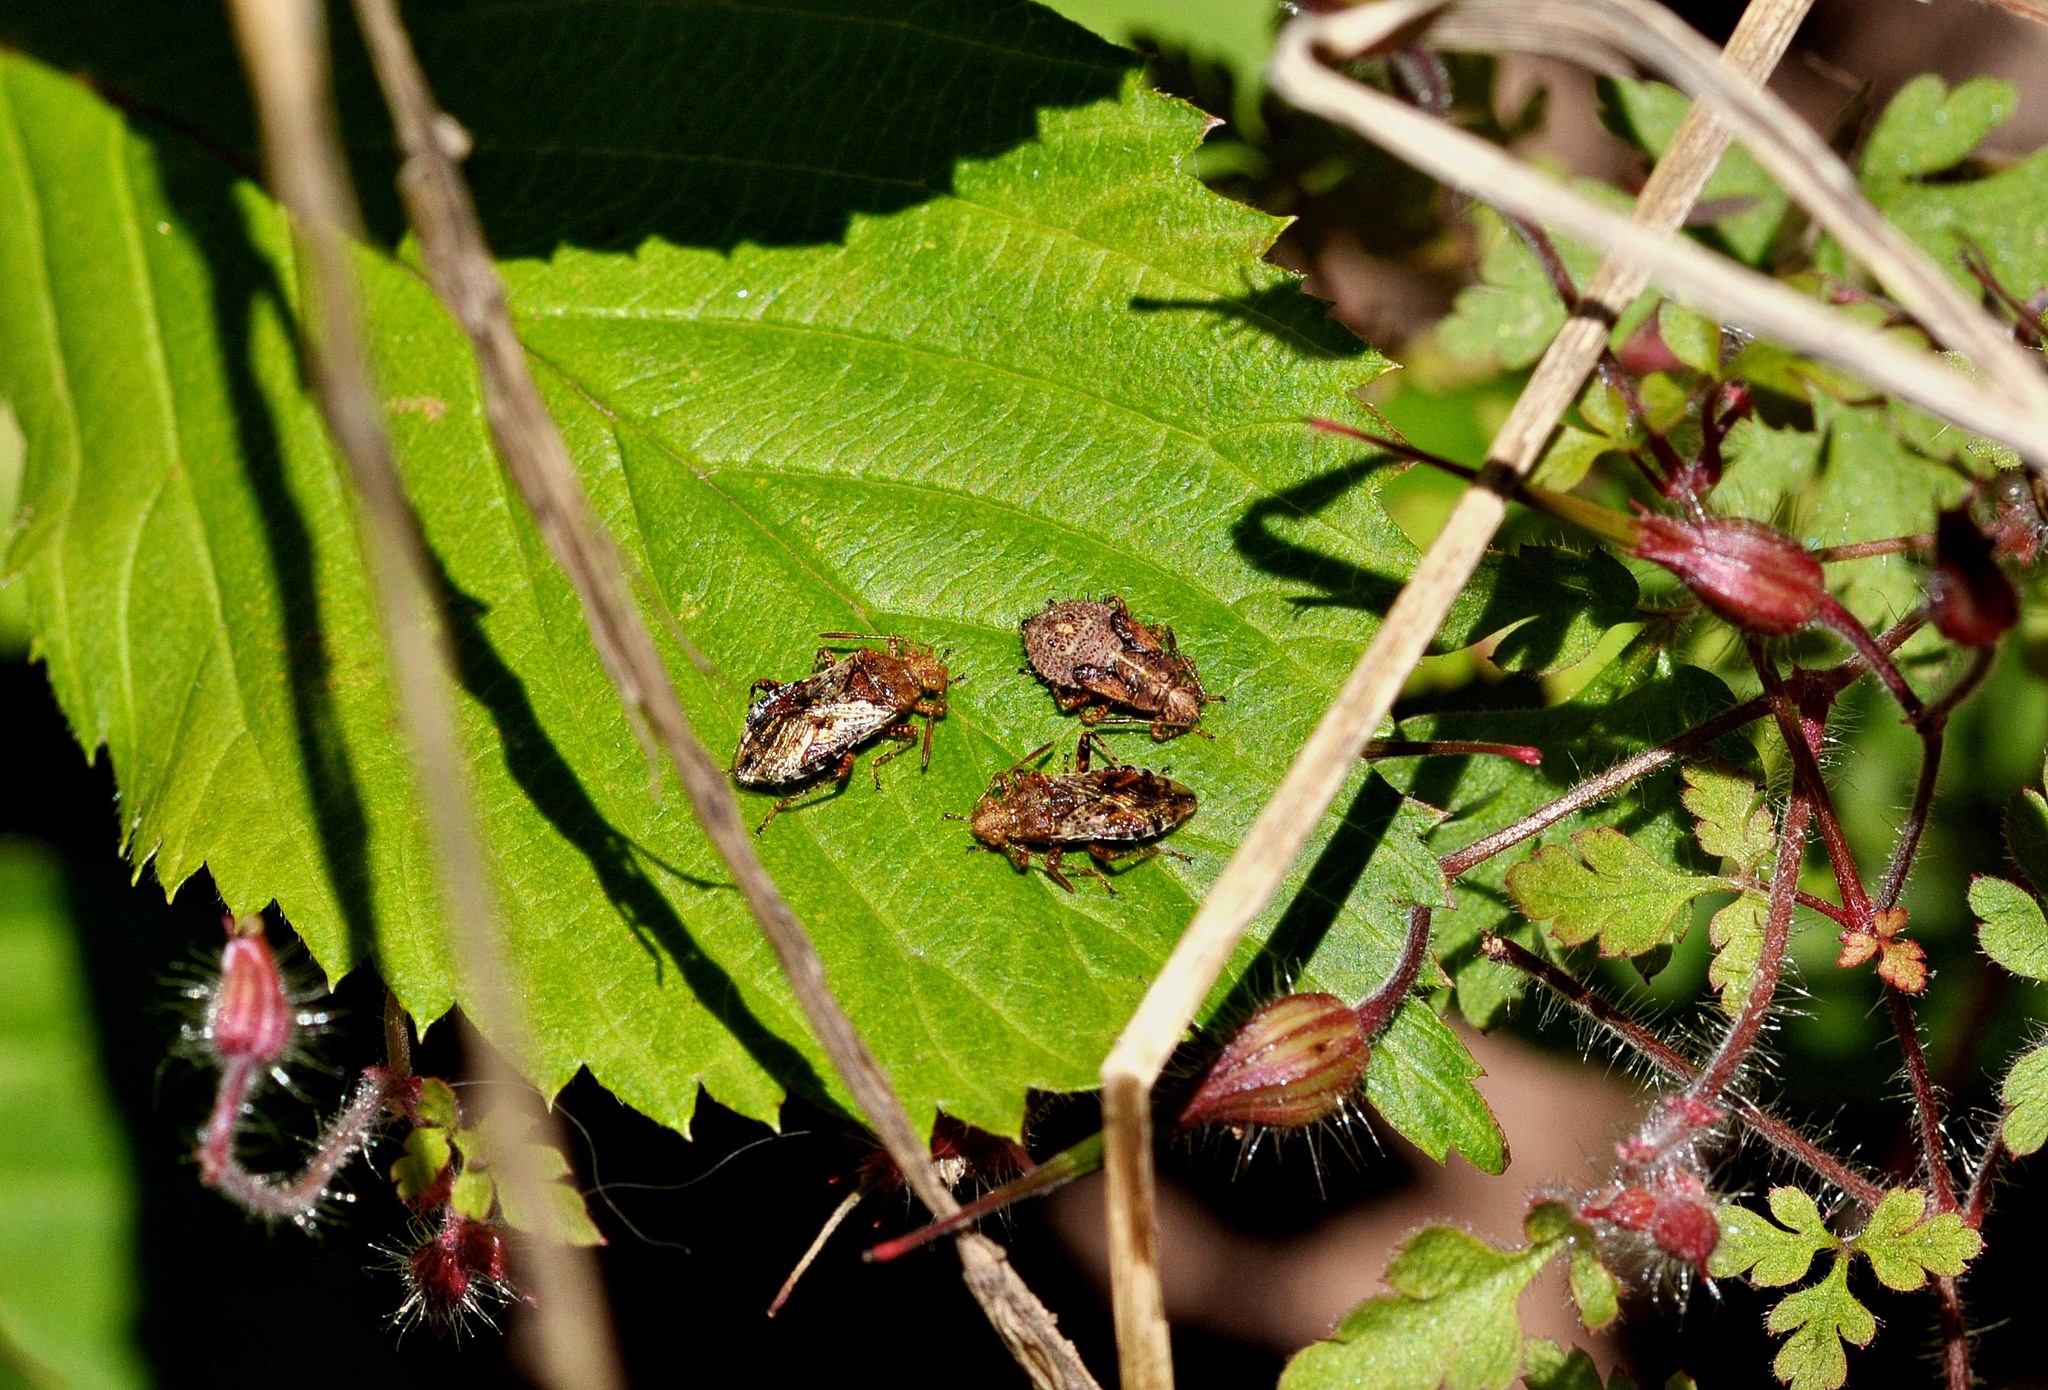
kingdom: Animalia
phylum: Arthropoda
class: Insecta
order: Hemiptera
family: Rhopalidae
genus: Rhopalus
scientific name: Rhopalus subrufus
